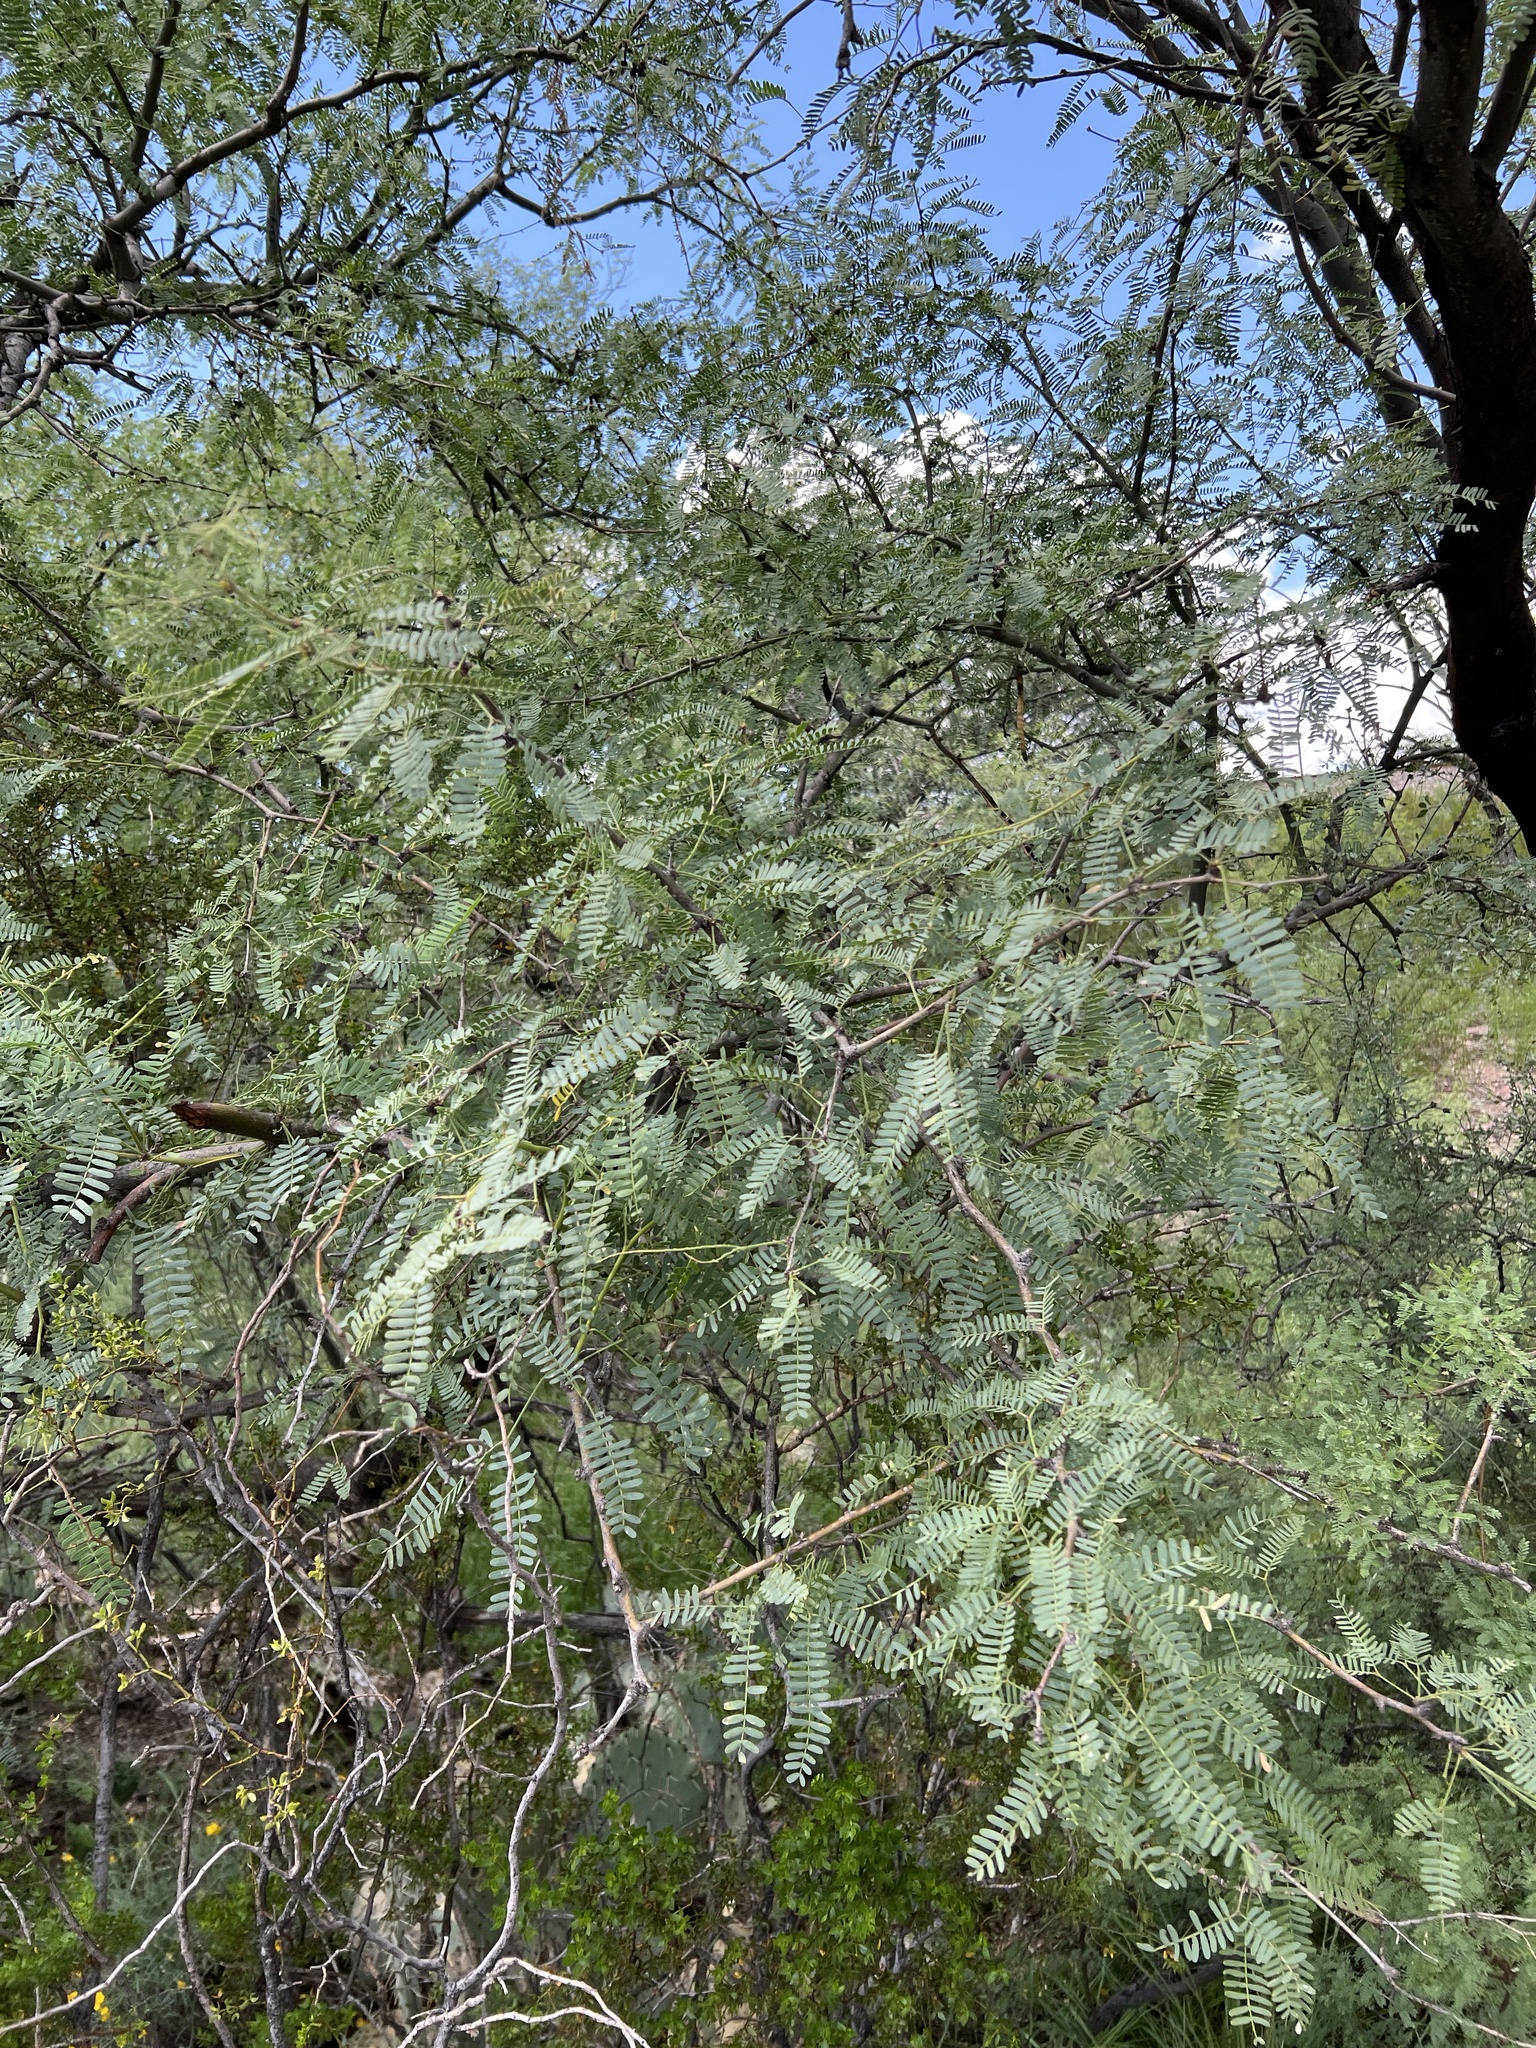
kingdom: Plantae
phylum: Tracheophyta
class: Magnoliopsida
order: Fabales
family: Fabaceae
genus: Prosopis
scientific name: Prosopis velutina
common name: Velvet mesquite
